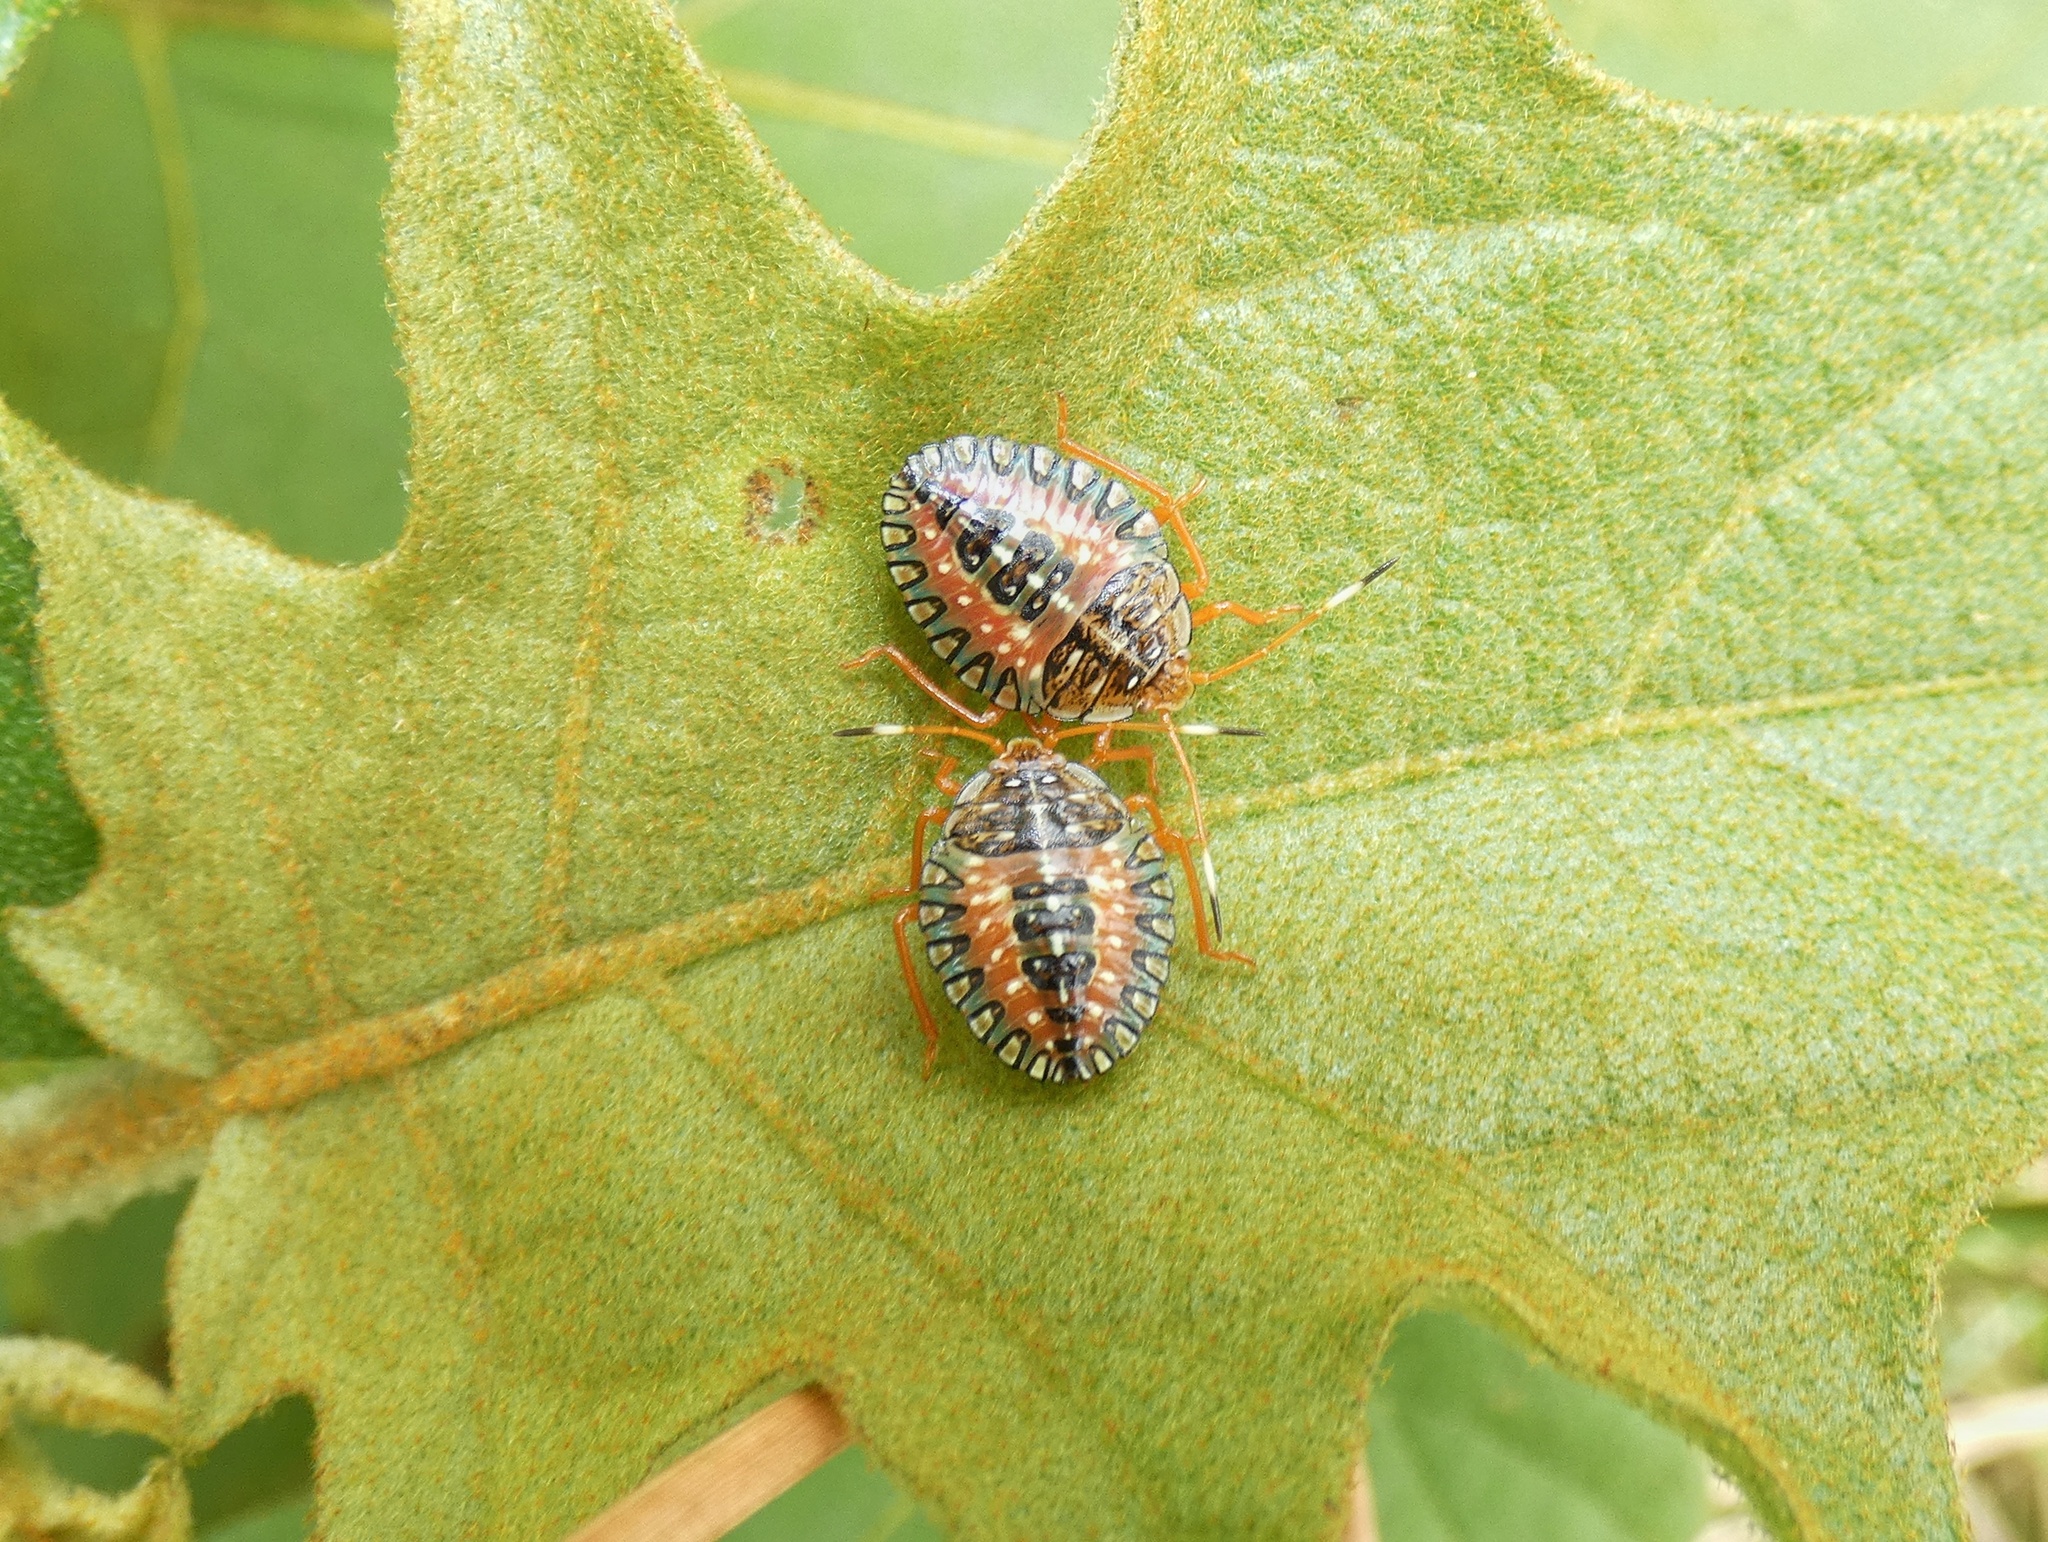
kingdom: Animalia
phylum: Arthropoda
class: Insecta
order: Hemiptera
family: Pentatomidae
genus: Edessa
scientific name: Edessa rufomarginata
